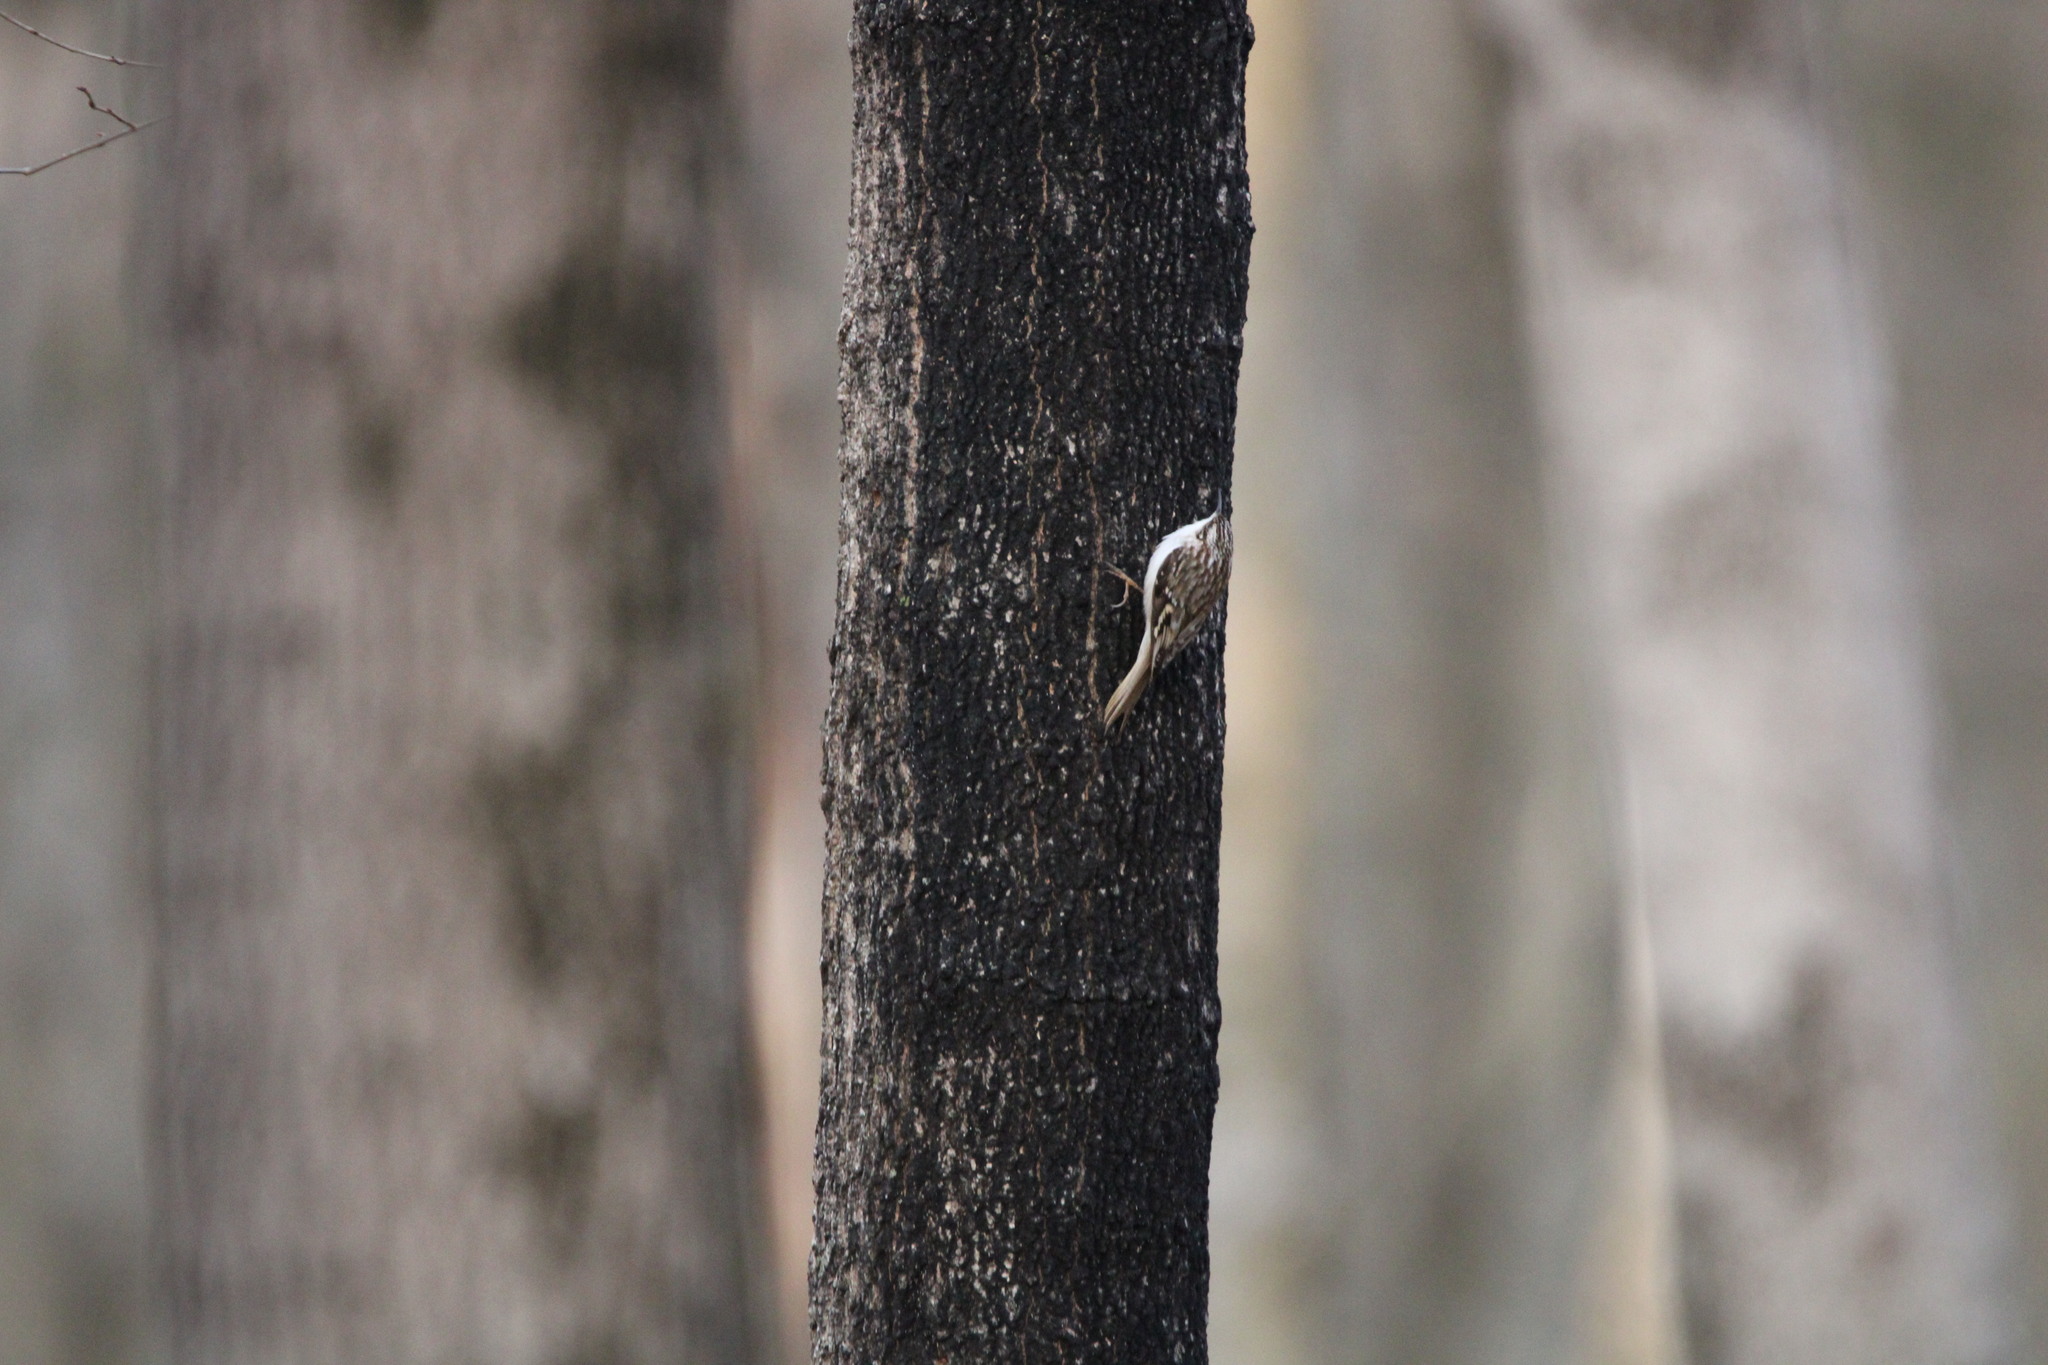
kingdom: Animalia
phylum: Chordata
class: Aves
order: Passeriformes
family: Certhiidae
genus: Certhia
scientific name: Certhia americana
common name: Brown creeper
